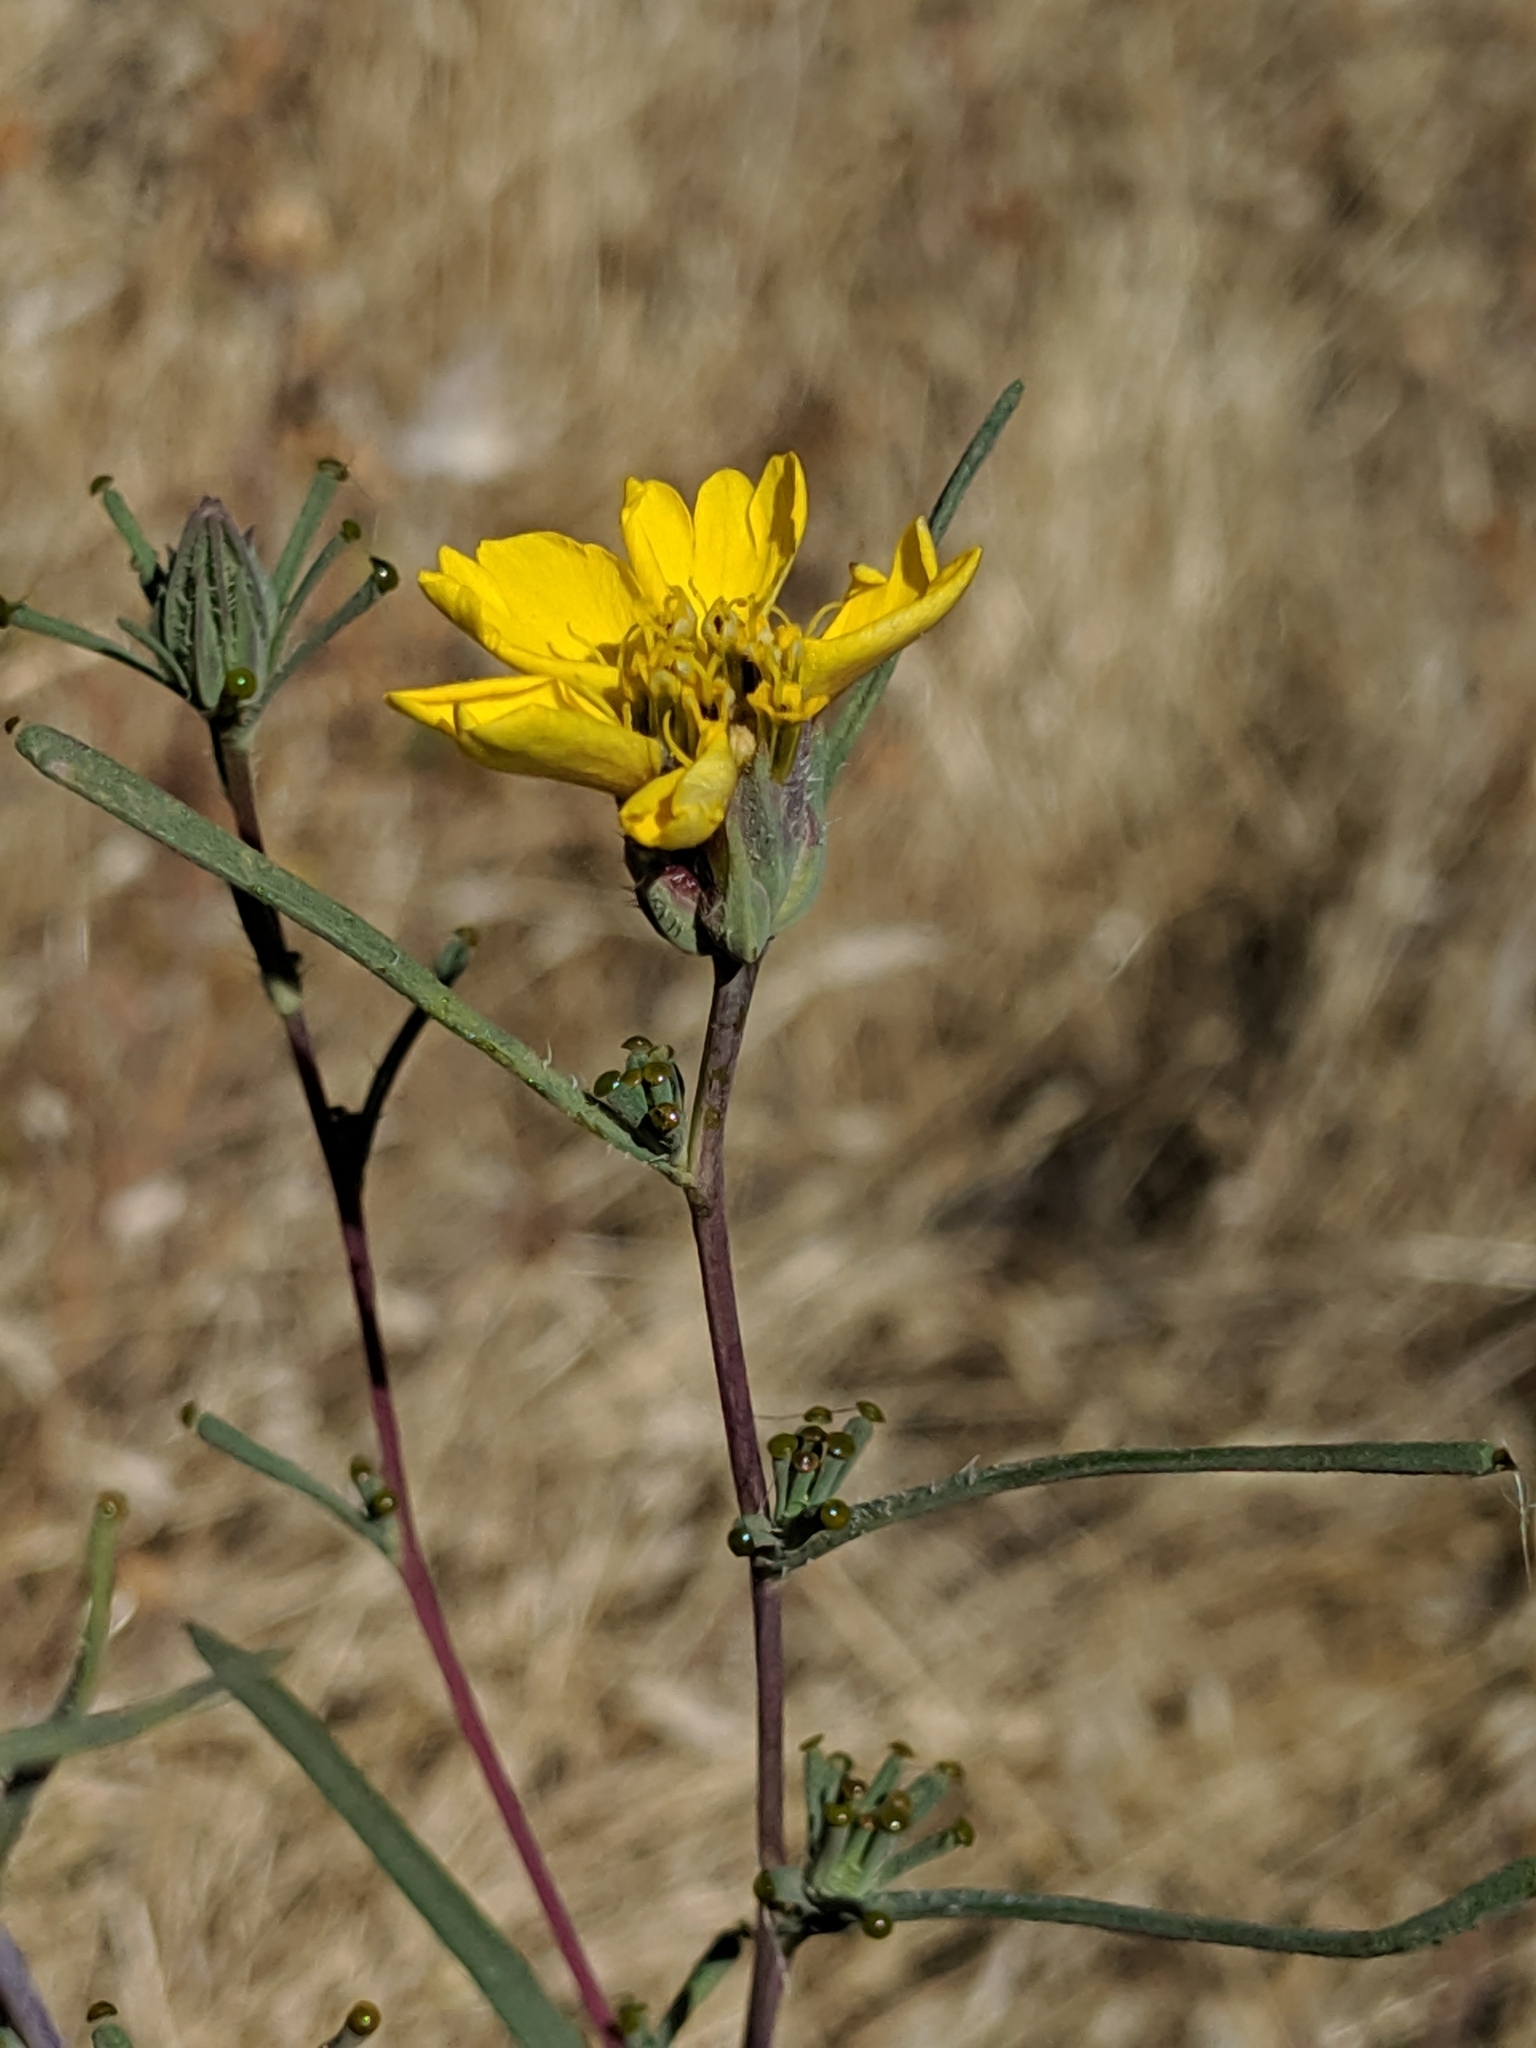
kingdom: Plantae
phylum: Tracheophyta
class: Magnoliopsida
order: Asterales
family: Asteraceae
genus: Calycadenia
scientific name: Calycadenia truncata
